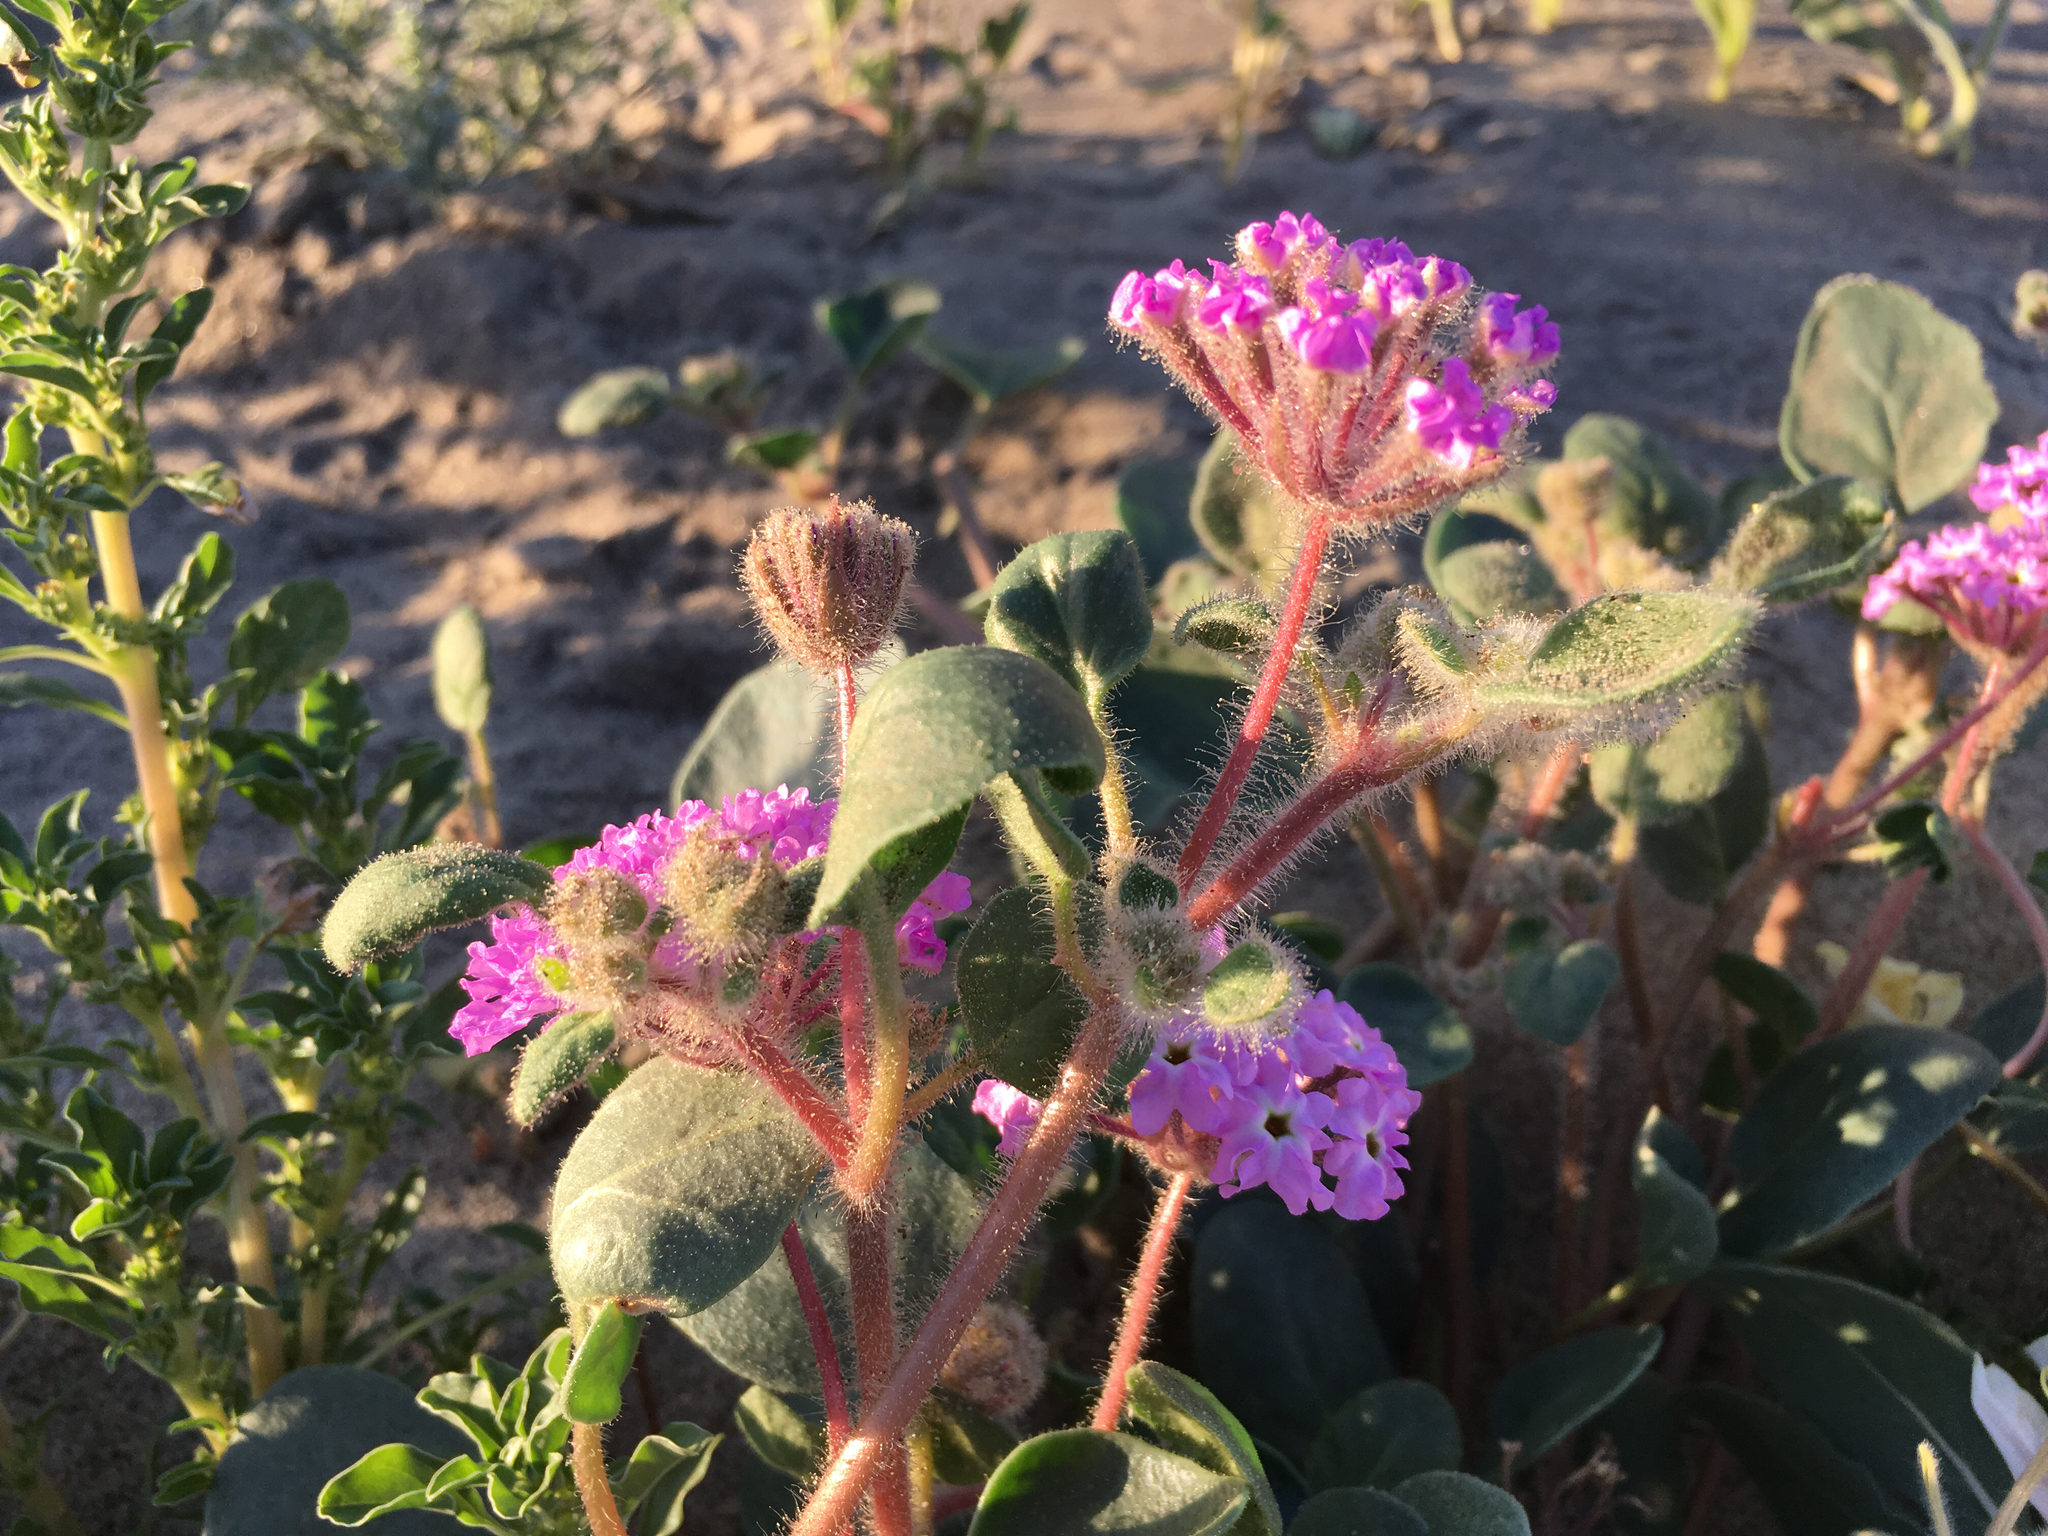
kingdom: Plantae
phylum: Tracheophyta
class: Magnoliopsida
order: Caryophyllales
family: Nyctaginaceae
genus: Abronia
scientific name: Abronia villosa
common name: Desert sand-verbena
